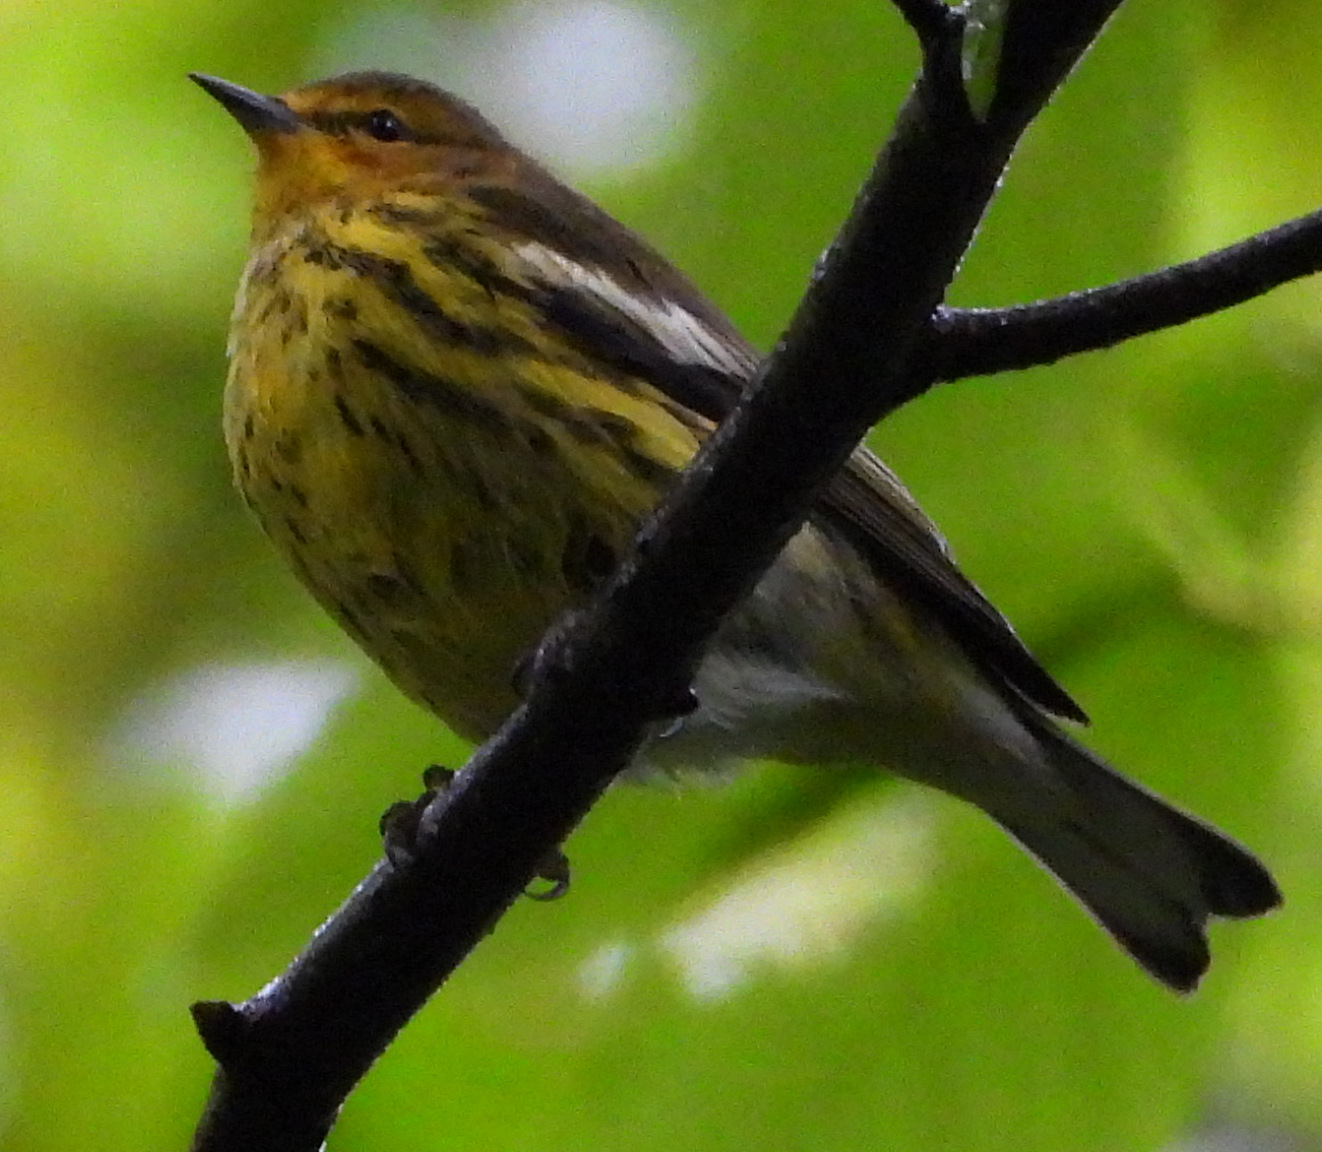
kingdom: Animalia
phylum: Chordata
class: Aves
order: Passeriformes
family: Parulidae
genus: Setophaga
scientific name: Setophaga tigrina
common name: Cape may warbler
